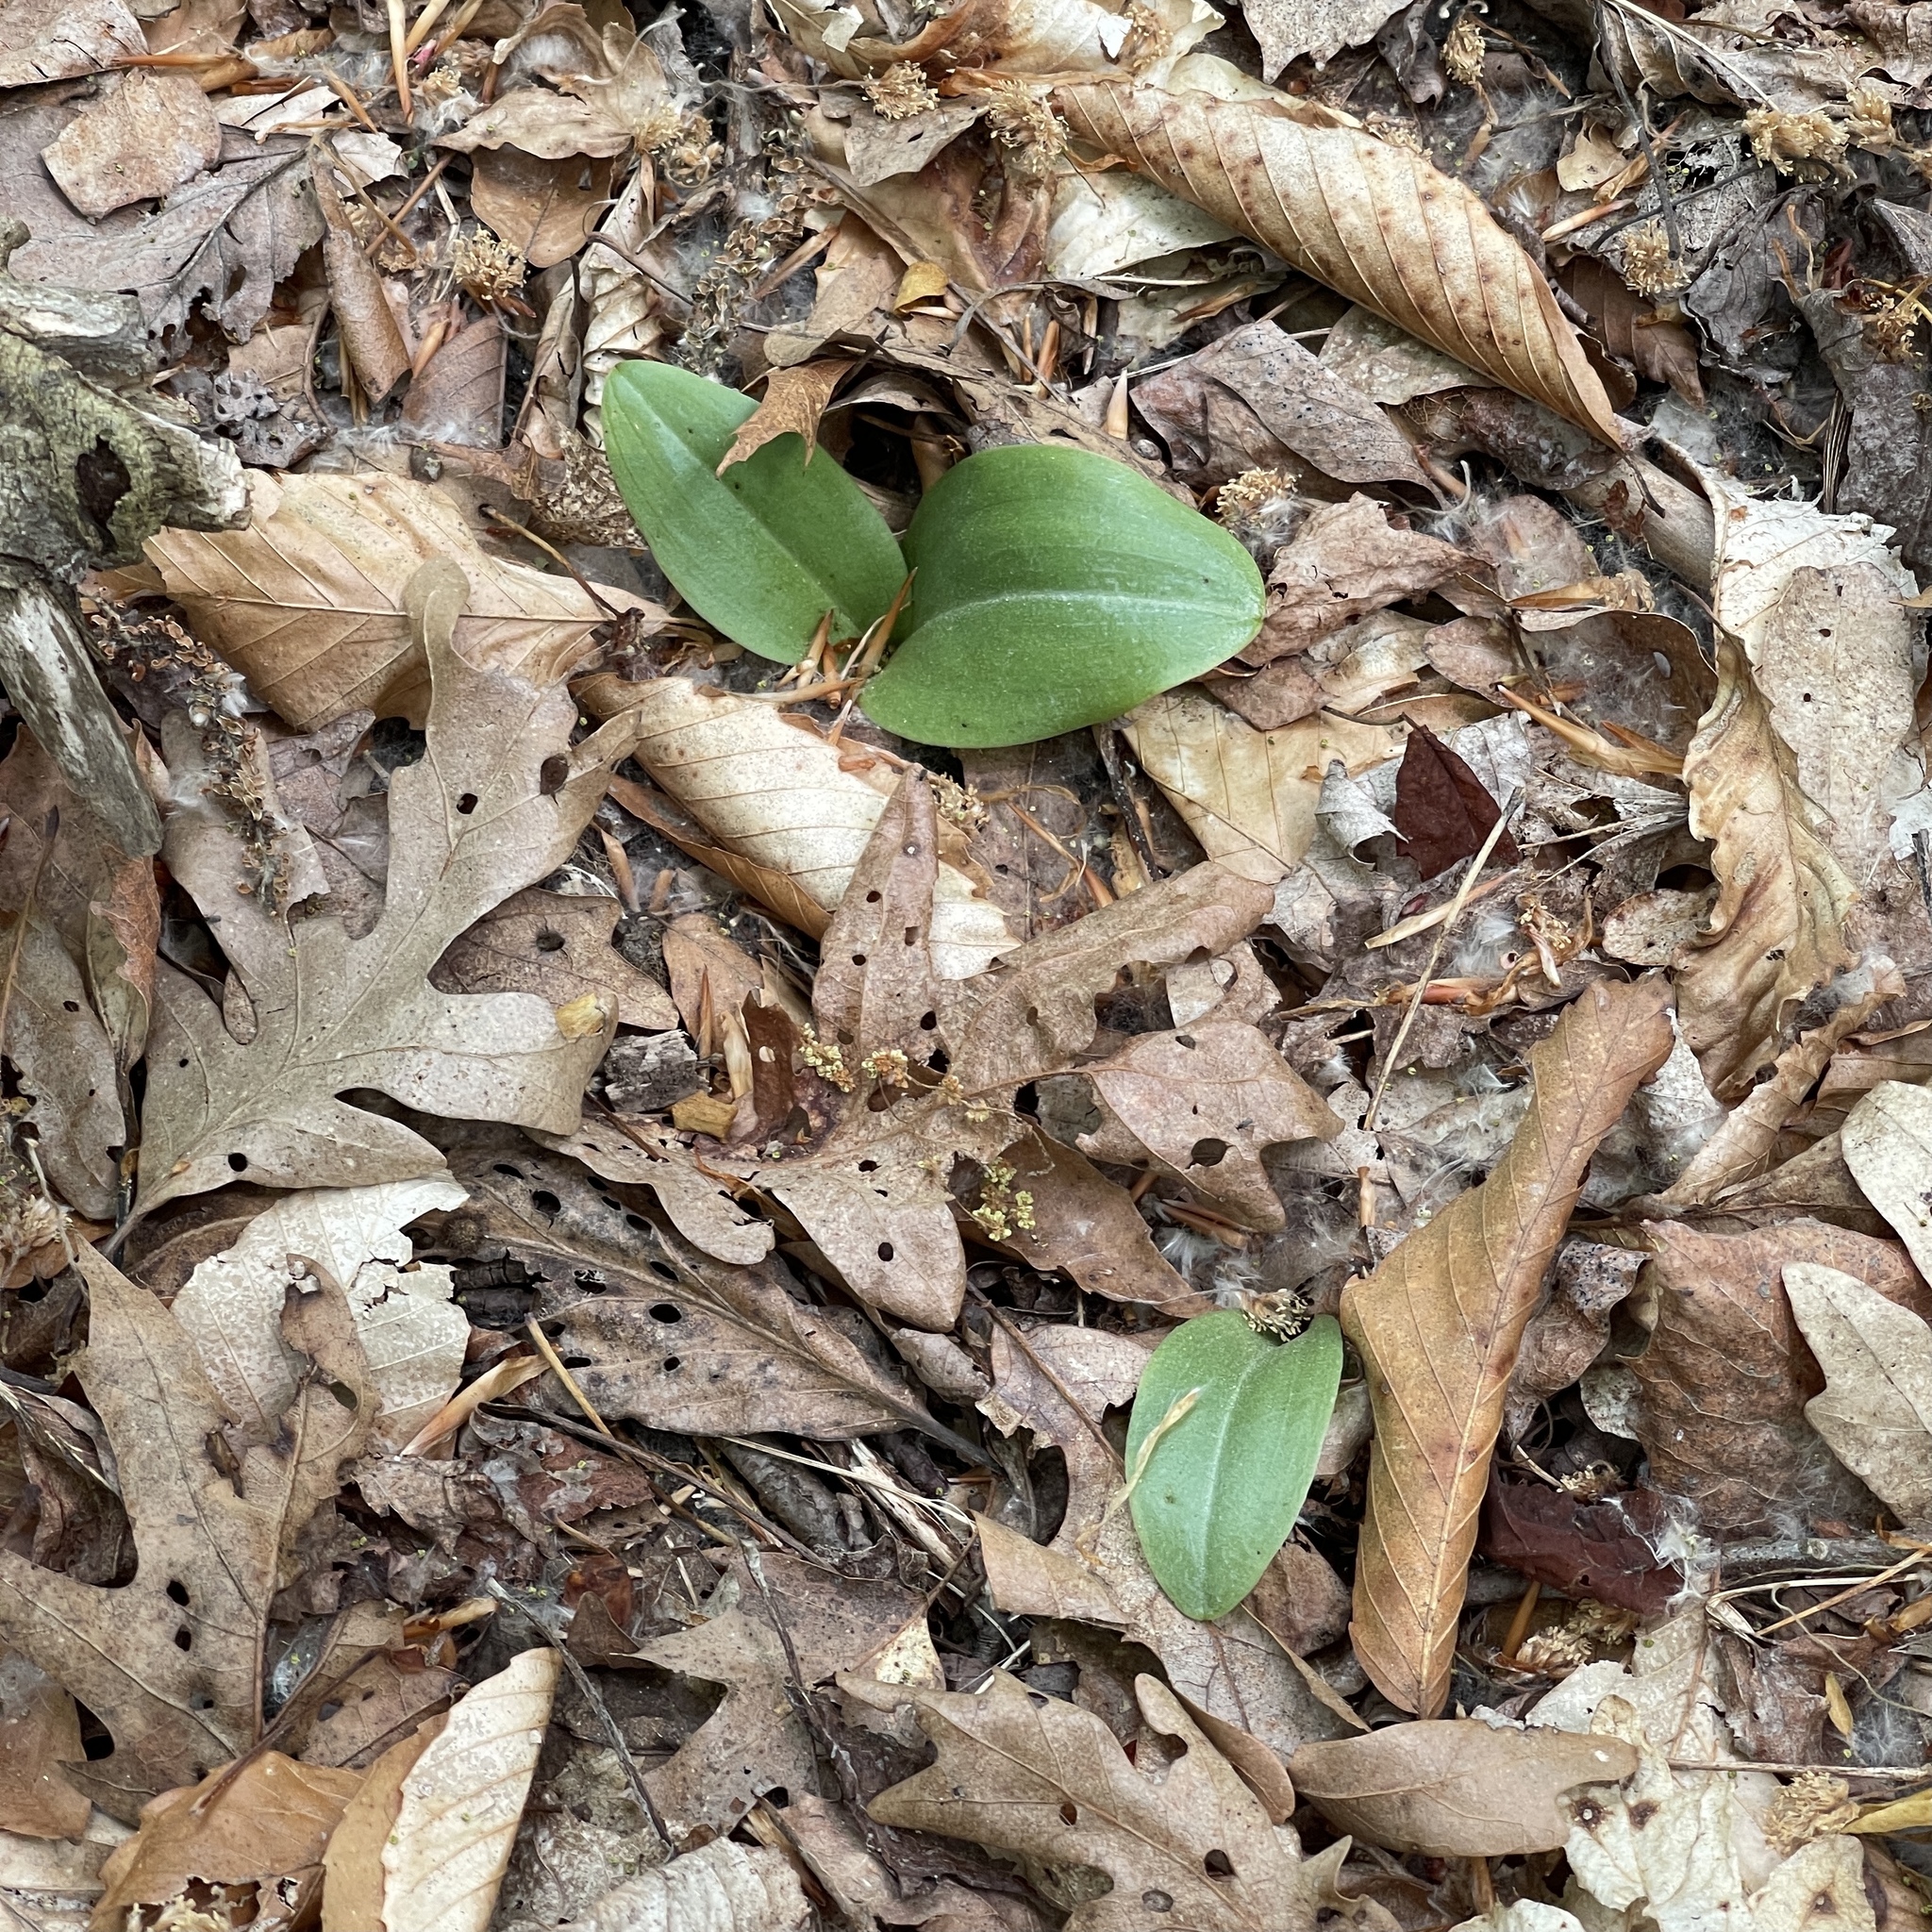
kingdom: Plantae
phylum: Tracheophyta
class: Liliopsida
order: Asparagales
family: Orchidaceae
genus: Platanthera
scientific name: Platanthera orbiculata
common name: Large round-leaved orchid
